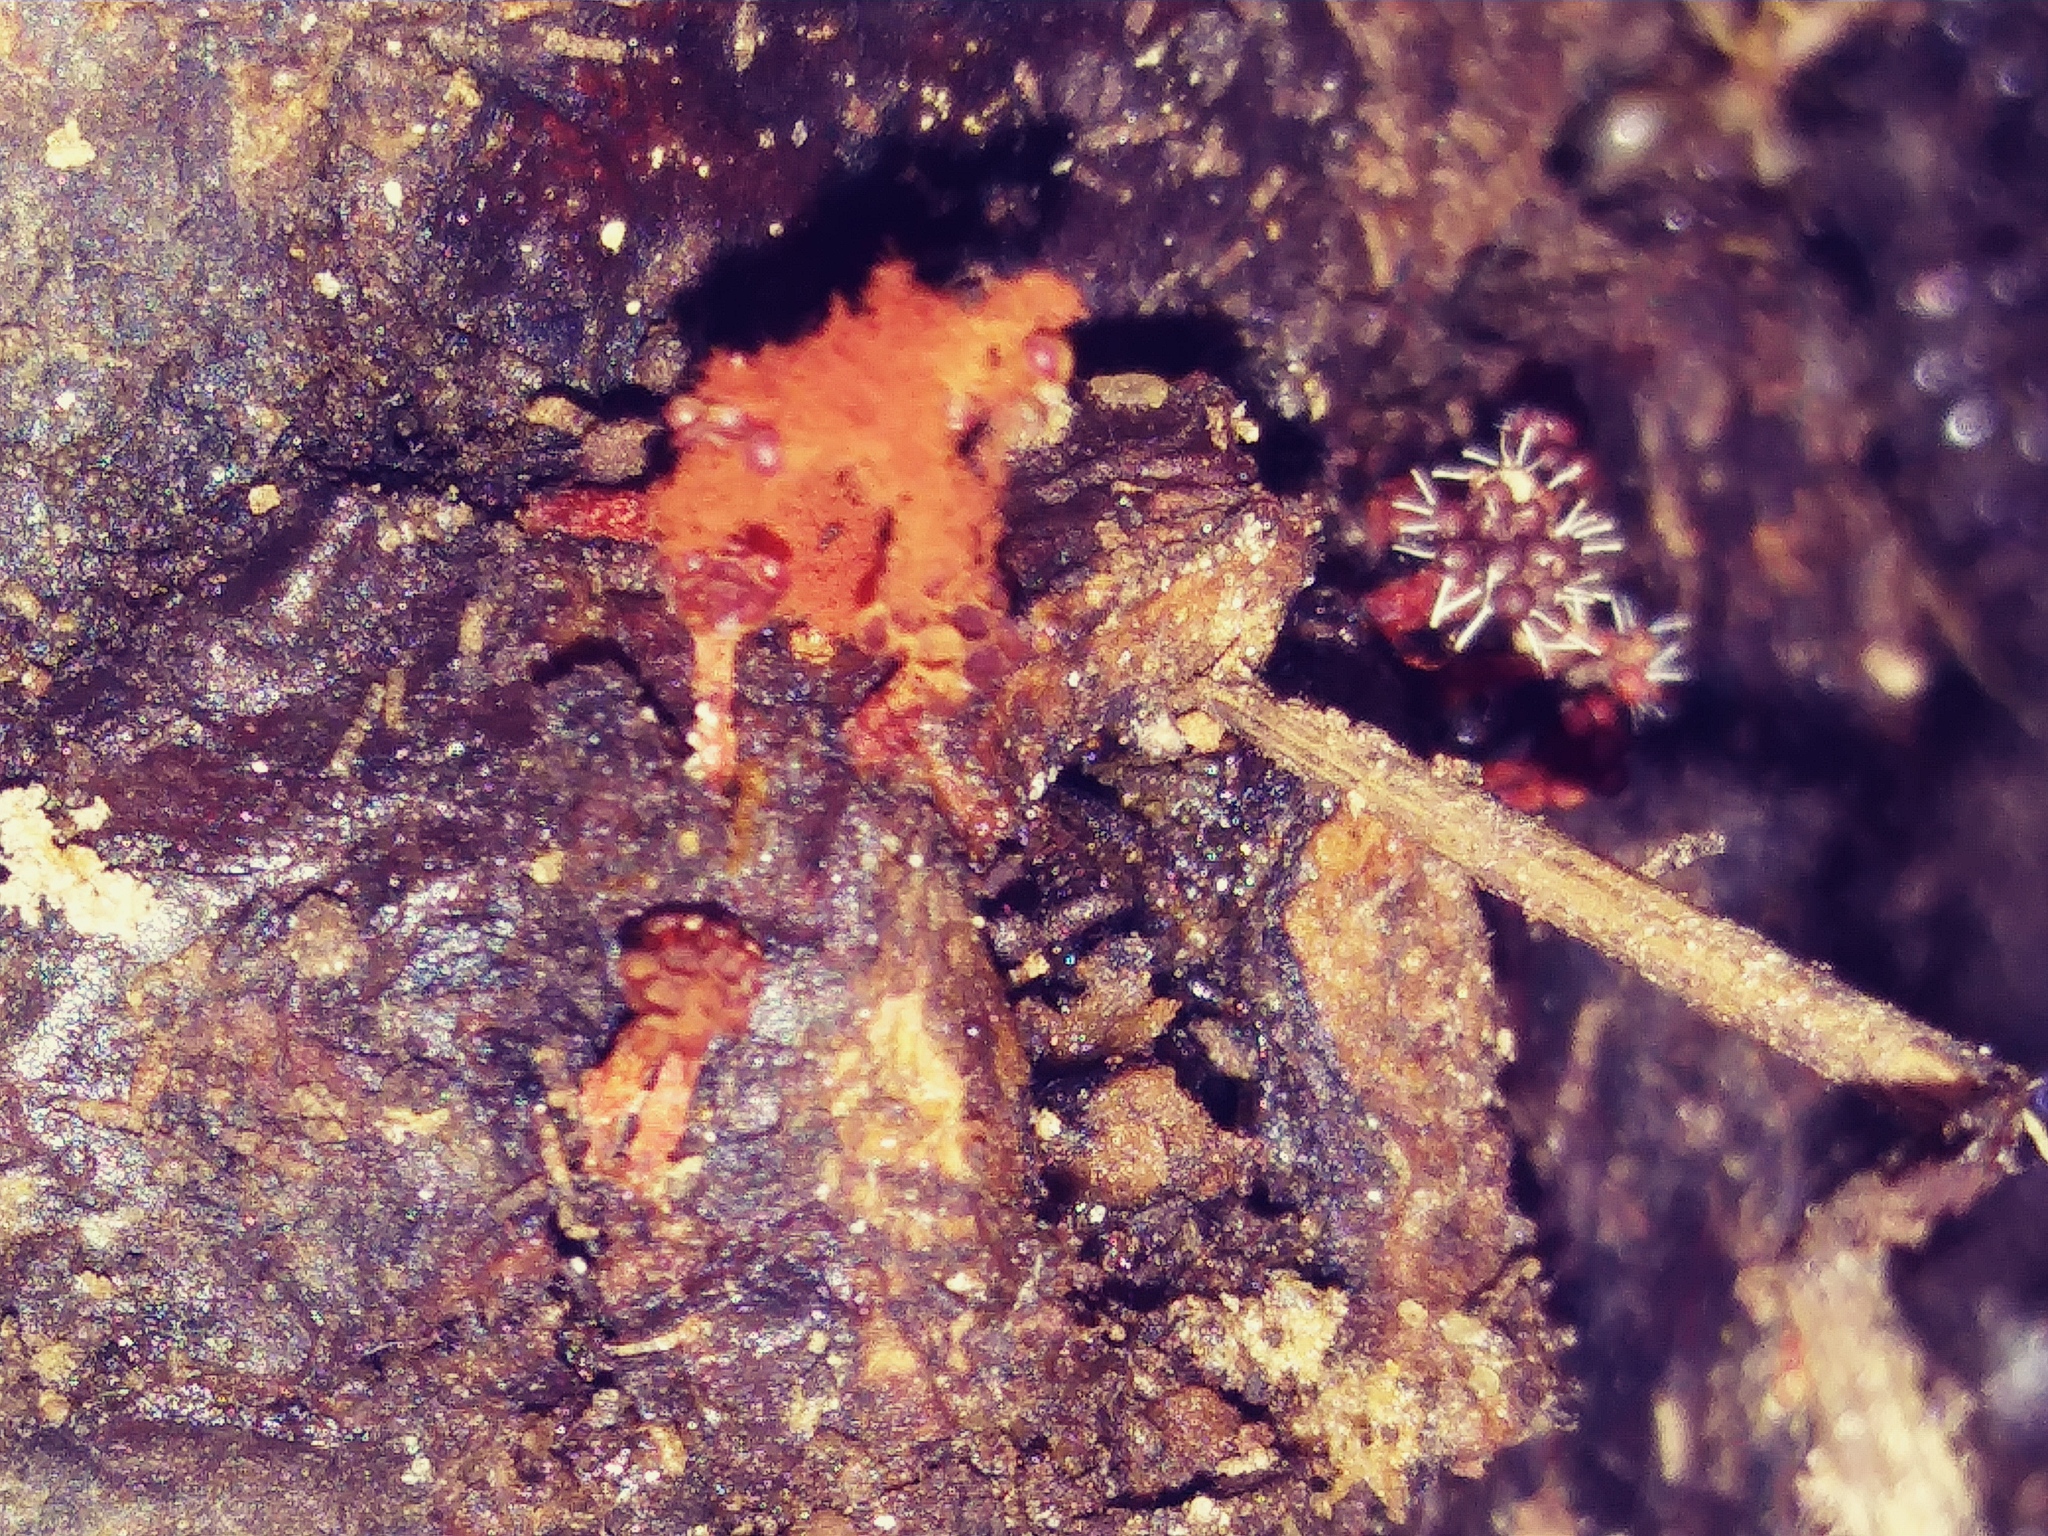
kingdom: Fungi
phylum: Ascomycota
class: Sordariomycetes
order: Hypocreales
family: Ophiocordycipitaceae
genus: Polycephalomyces
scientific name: Polycephalomyces tomentosus
